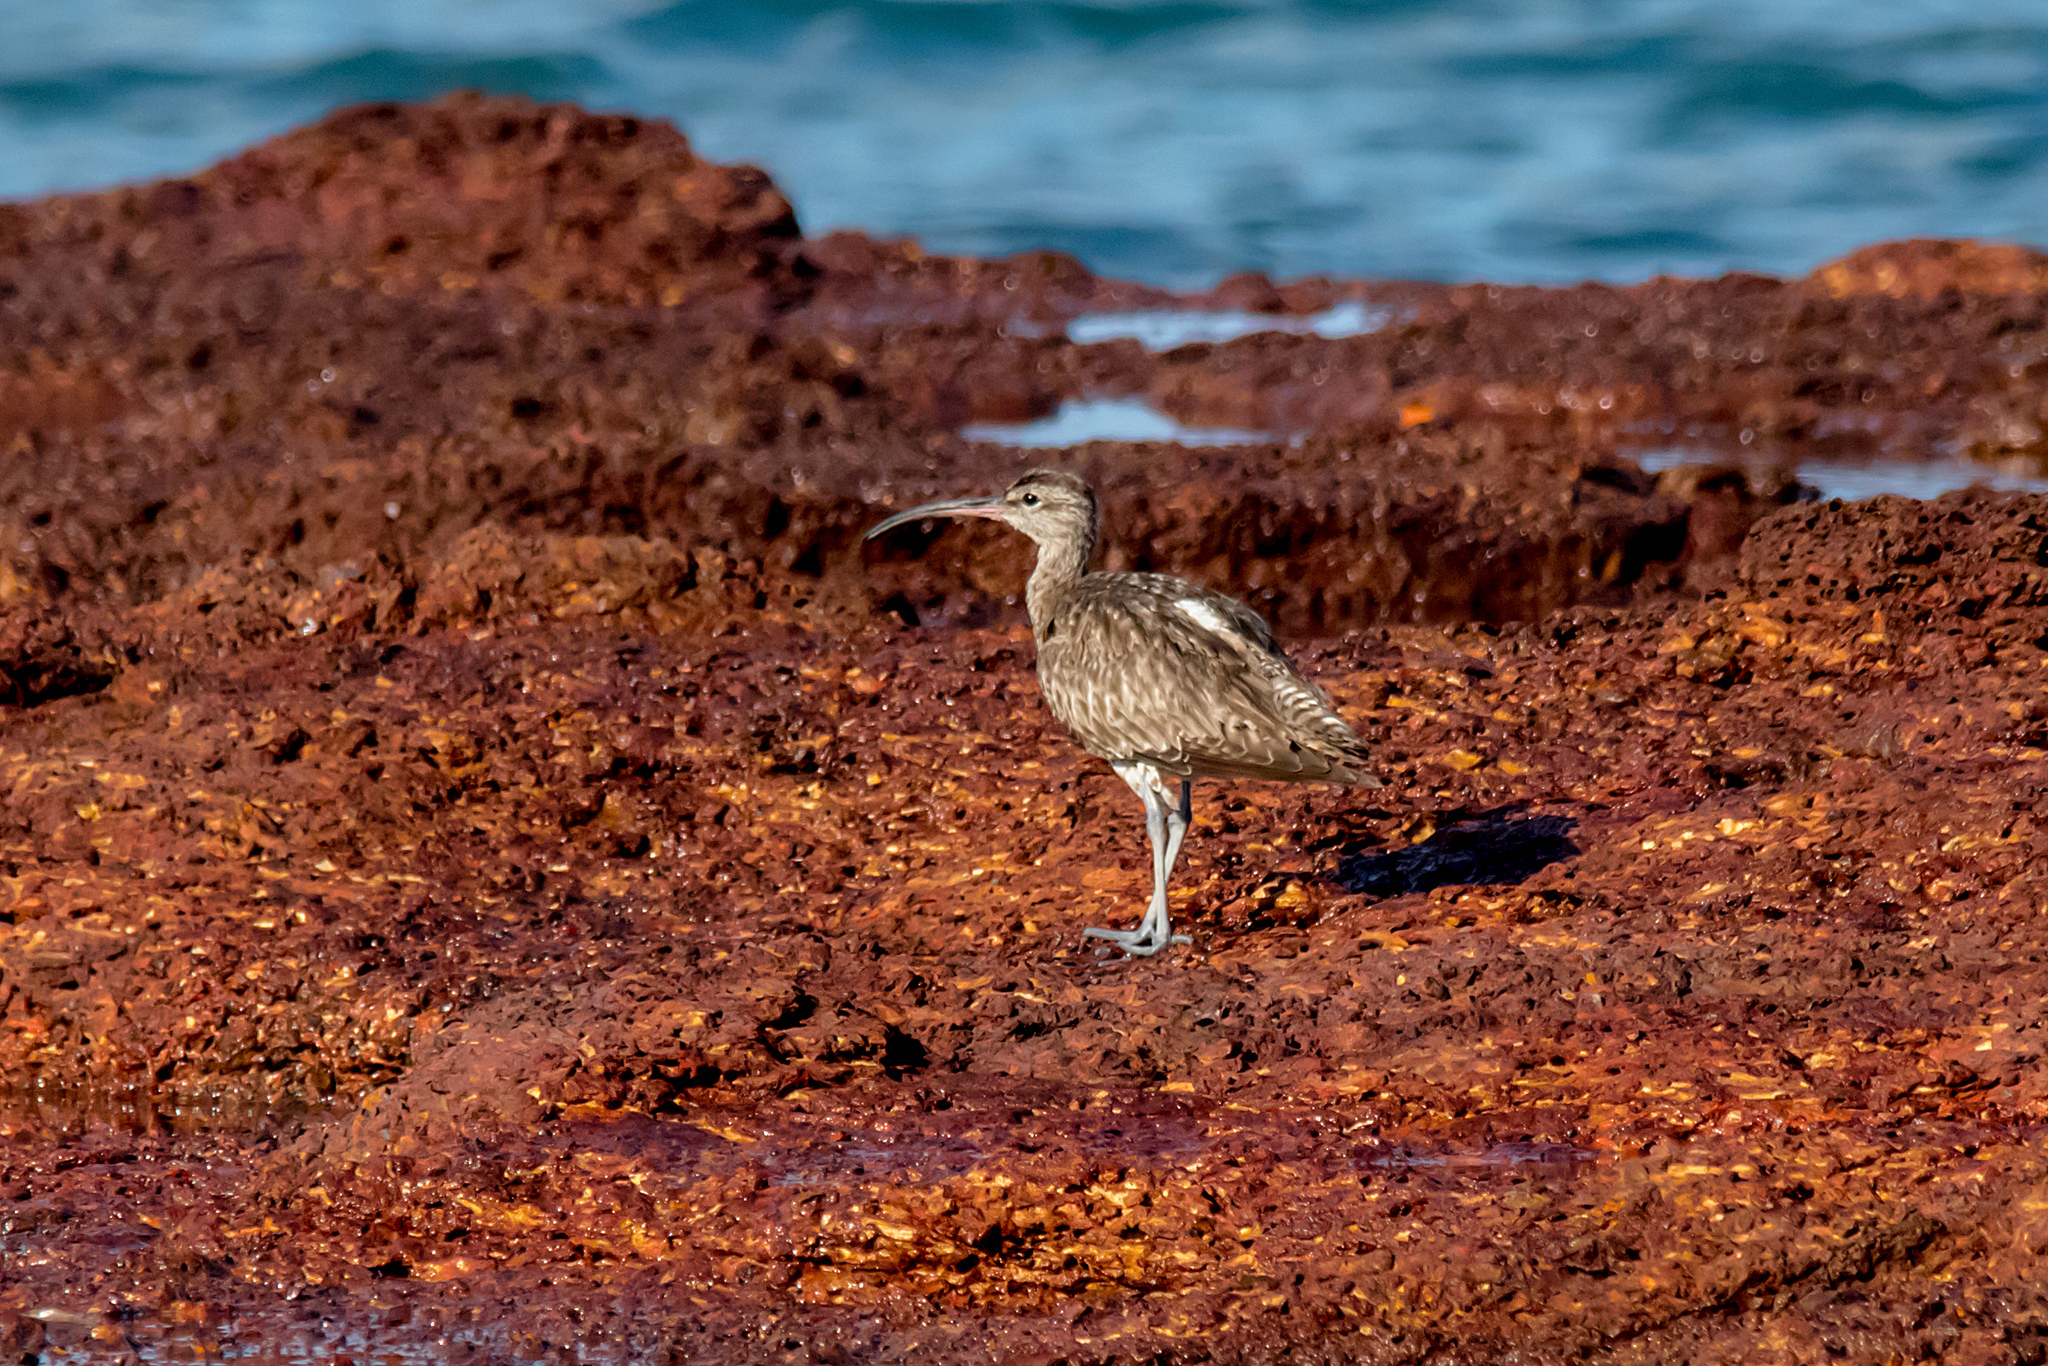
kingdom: Animalia
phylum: Chordata
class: Aves
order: Charadriiformes
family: Scolopacidae
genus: Numenius
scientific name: Numenius phaeopus
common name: Whimbrel
